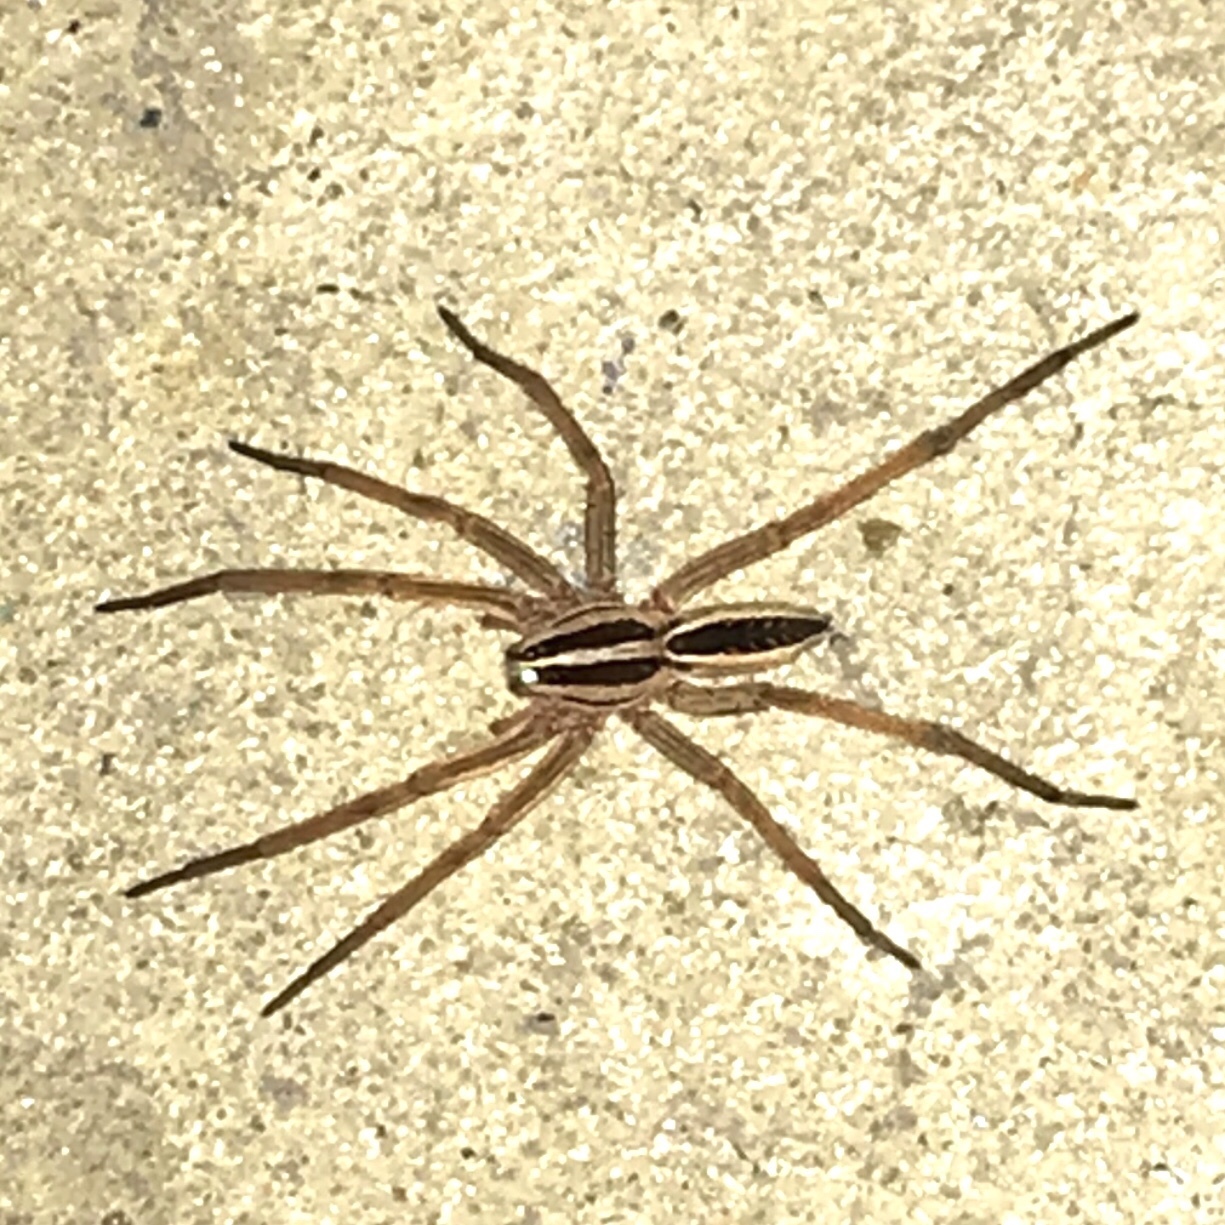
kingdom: Animalia
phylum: Arthropoda
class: Arachnida
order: Araneae
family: Lycosidae
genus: Rabidosa
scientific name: Rabidosa rabida
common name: Rabid wolf spider
